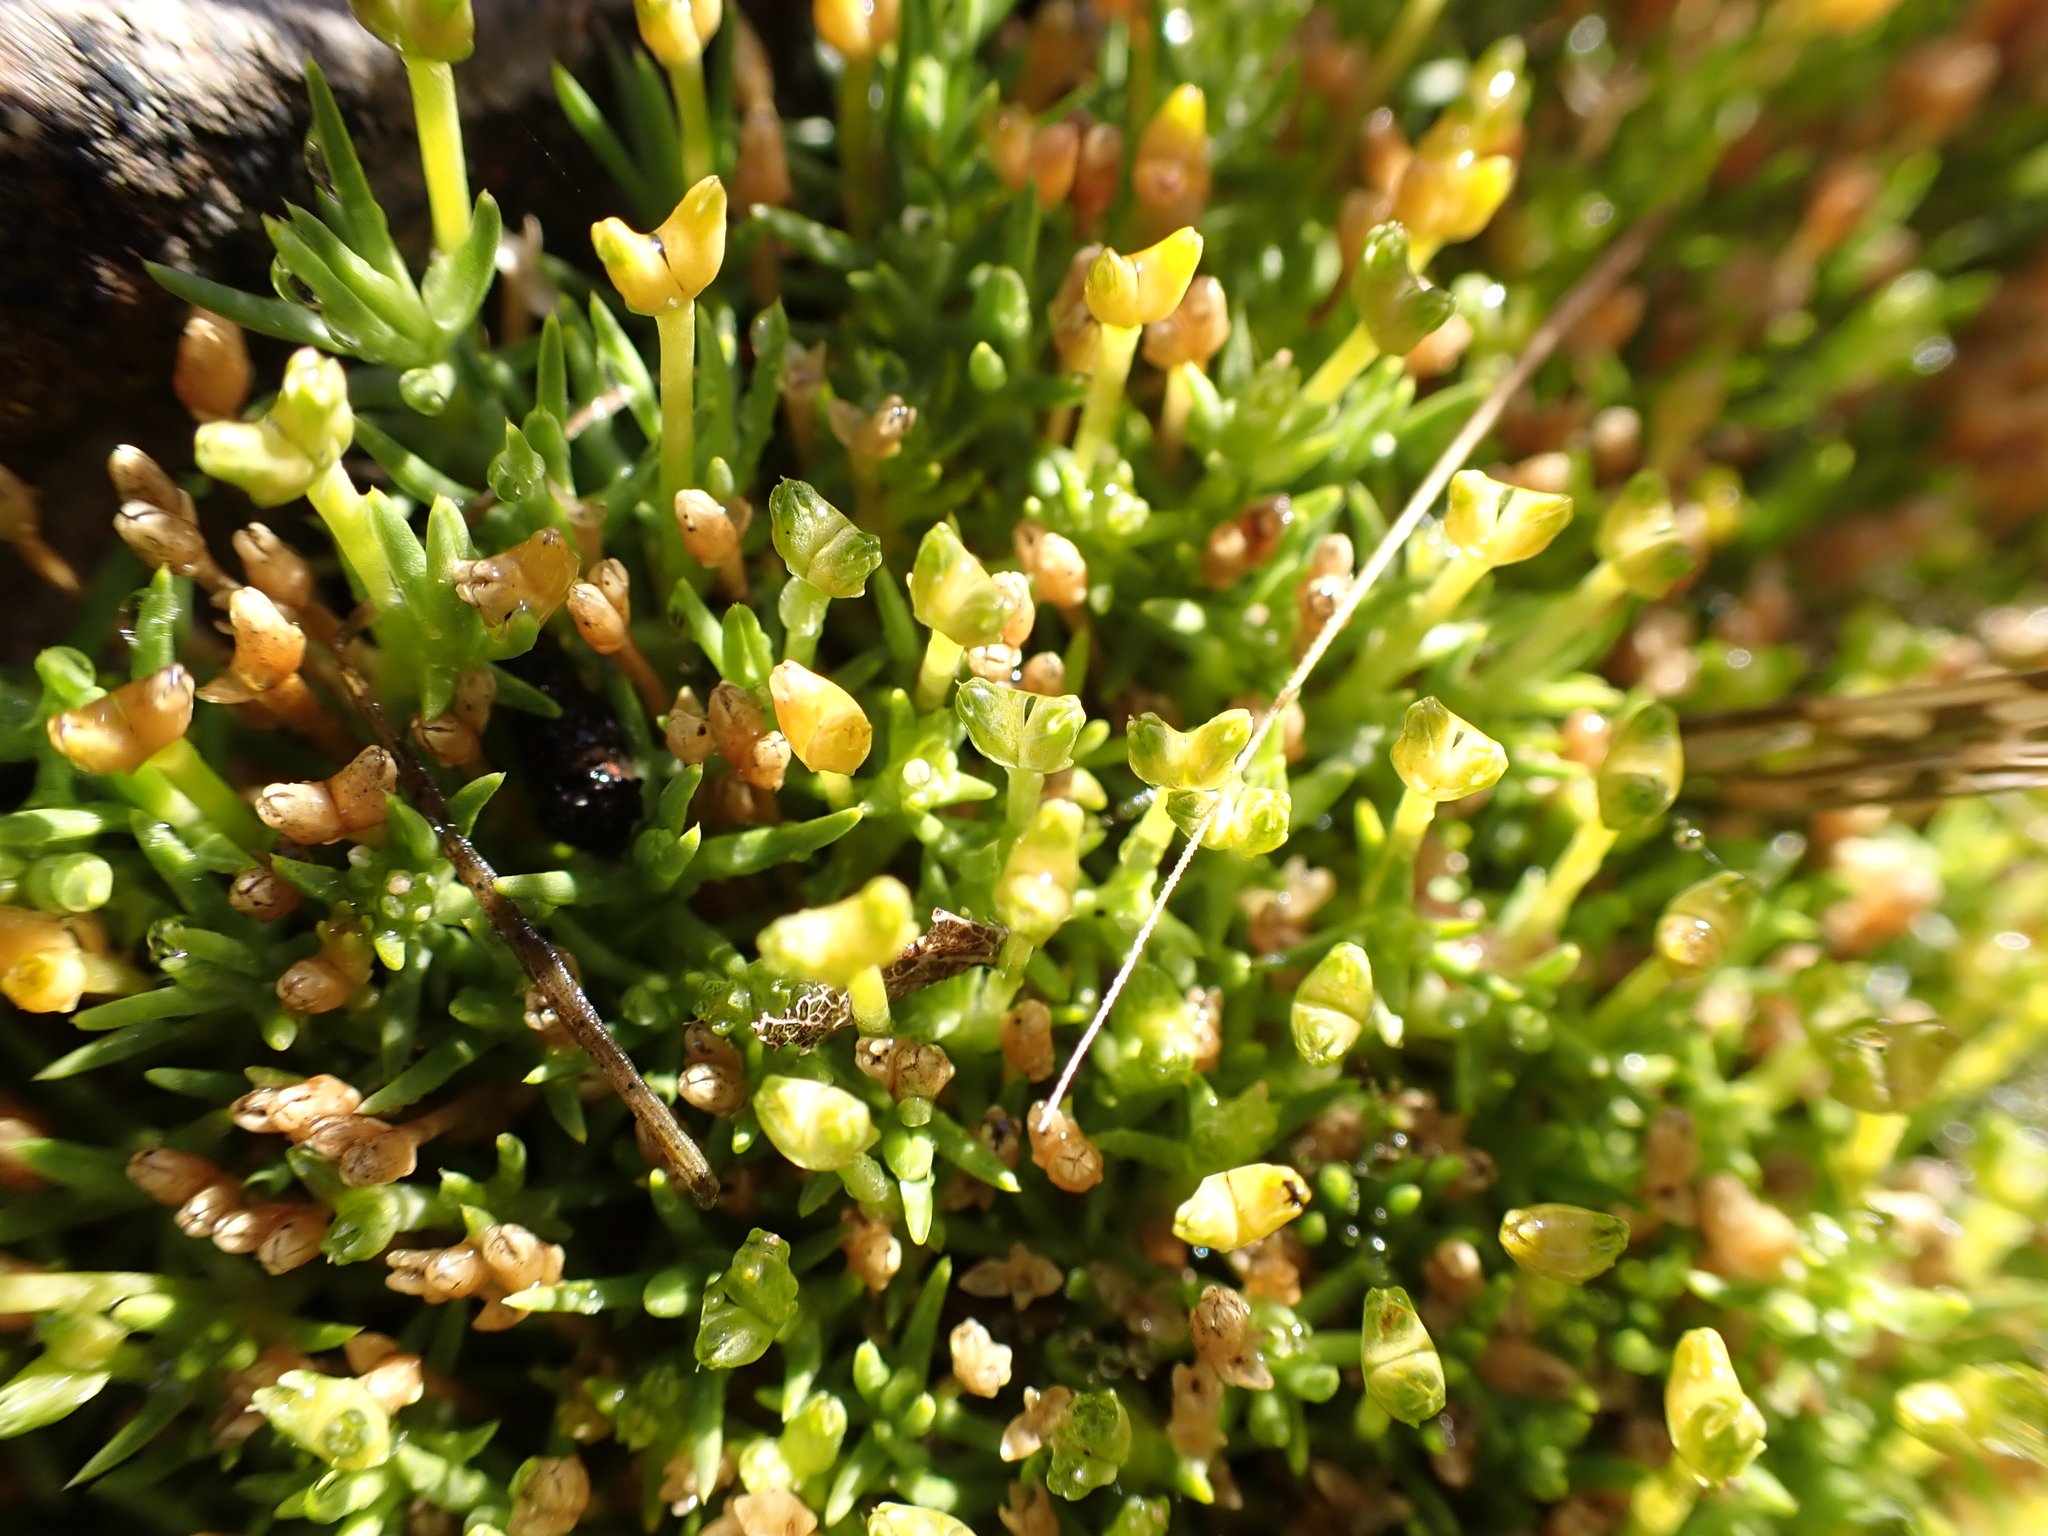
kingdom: Plantae
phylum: Tracheophyta
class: Magnoliopsida
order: Caryophyllales
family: Caryophyllaceae
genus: Scleranthus
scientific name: Scleranthus biflorus
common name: Two-flower knawel
